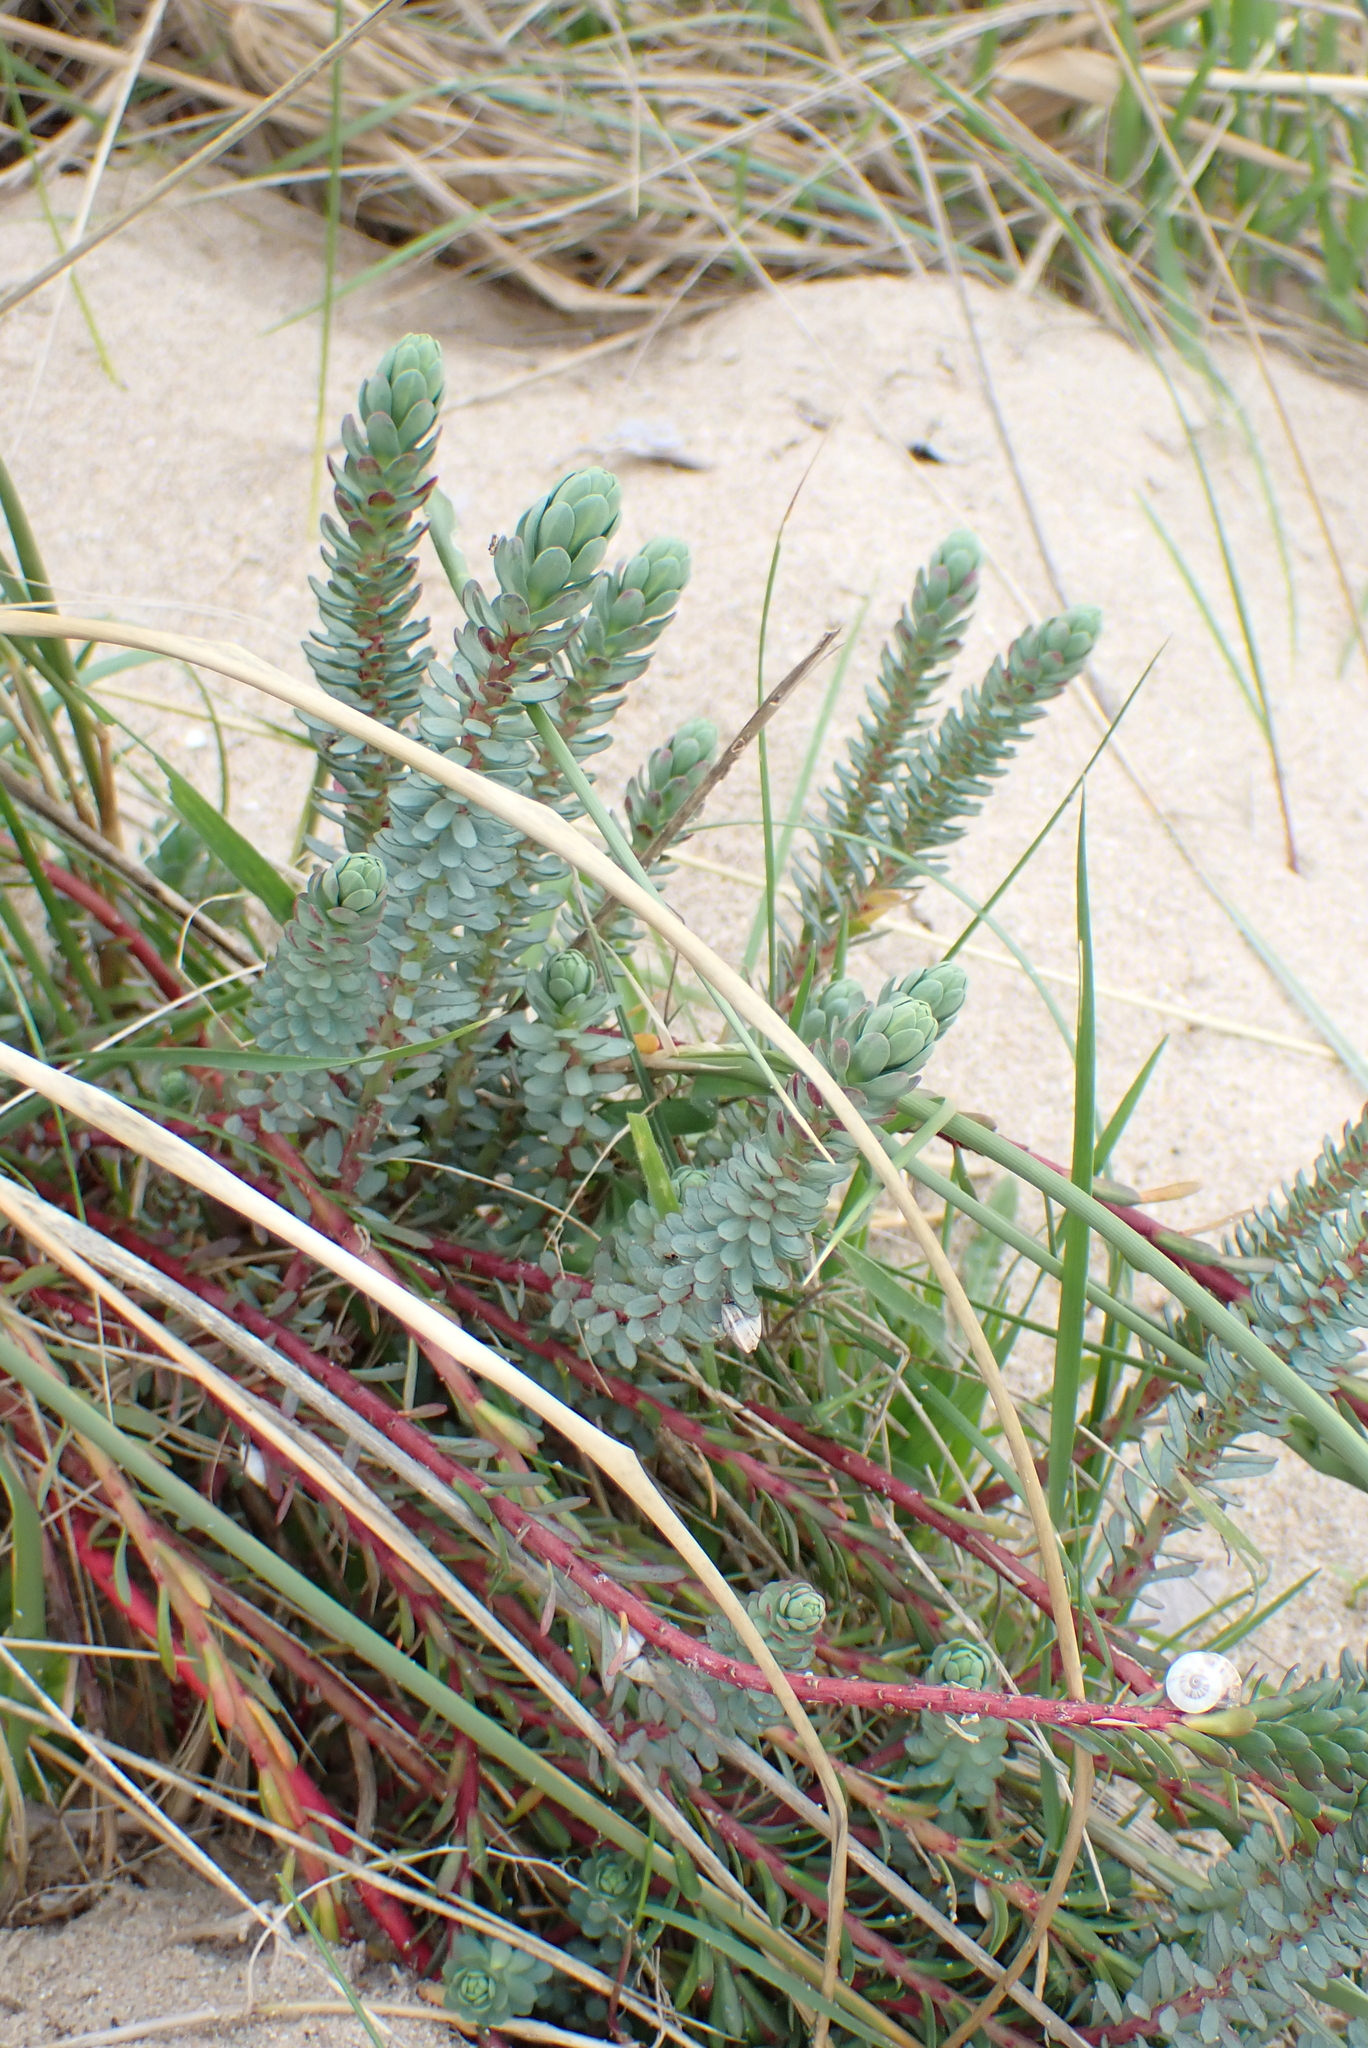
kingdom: Plantae
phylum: Tracheophyta
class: Magnoliopsida
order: Malpighiales
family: Euphorbiaceae
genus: Euphorbia
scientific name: Euphorbia paralias
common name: Sea spurge
